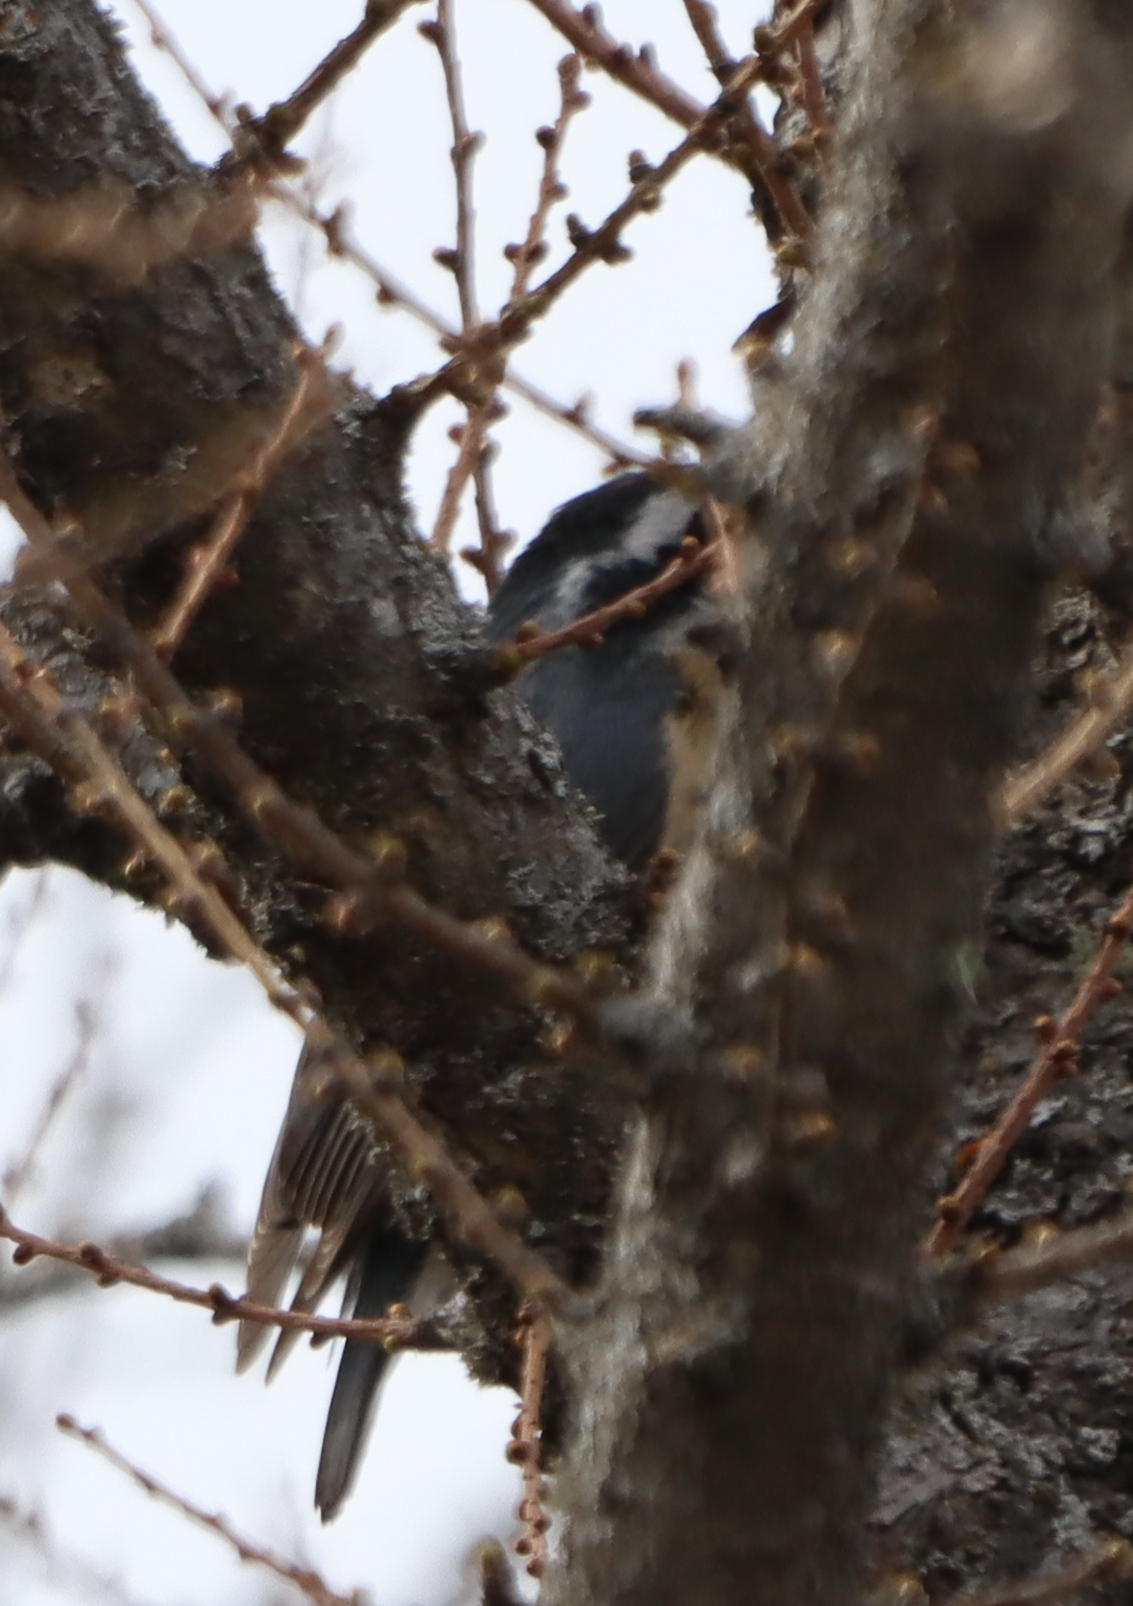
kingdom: Animalia
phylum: Chordata
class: Aves
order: Passeriformes
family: Sittidae
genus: Sitta
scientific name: Sitta canadensis
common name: Red-breasted nuthatch
